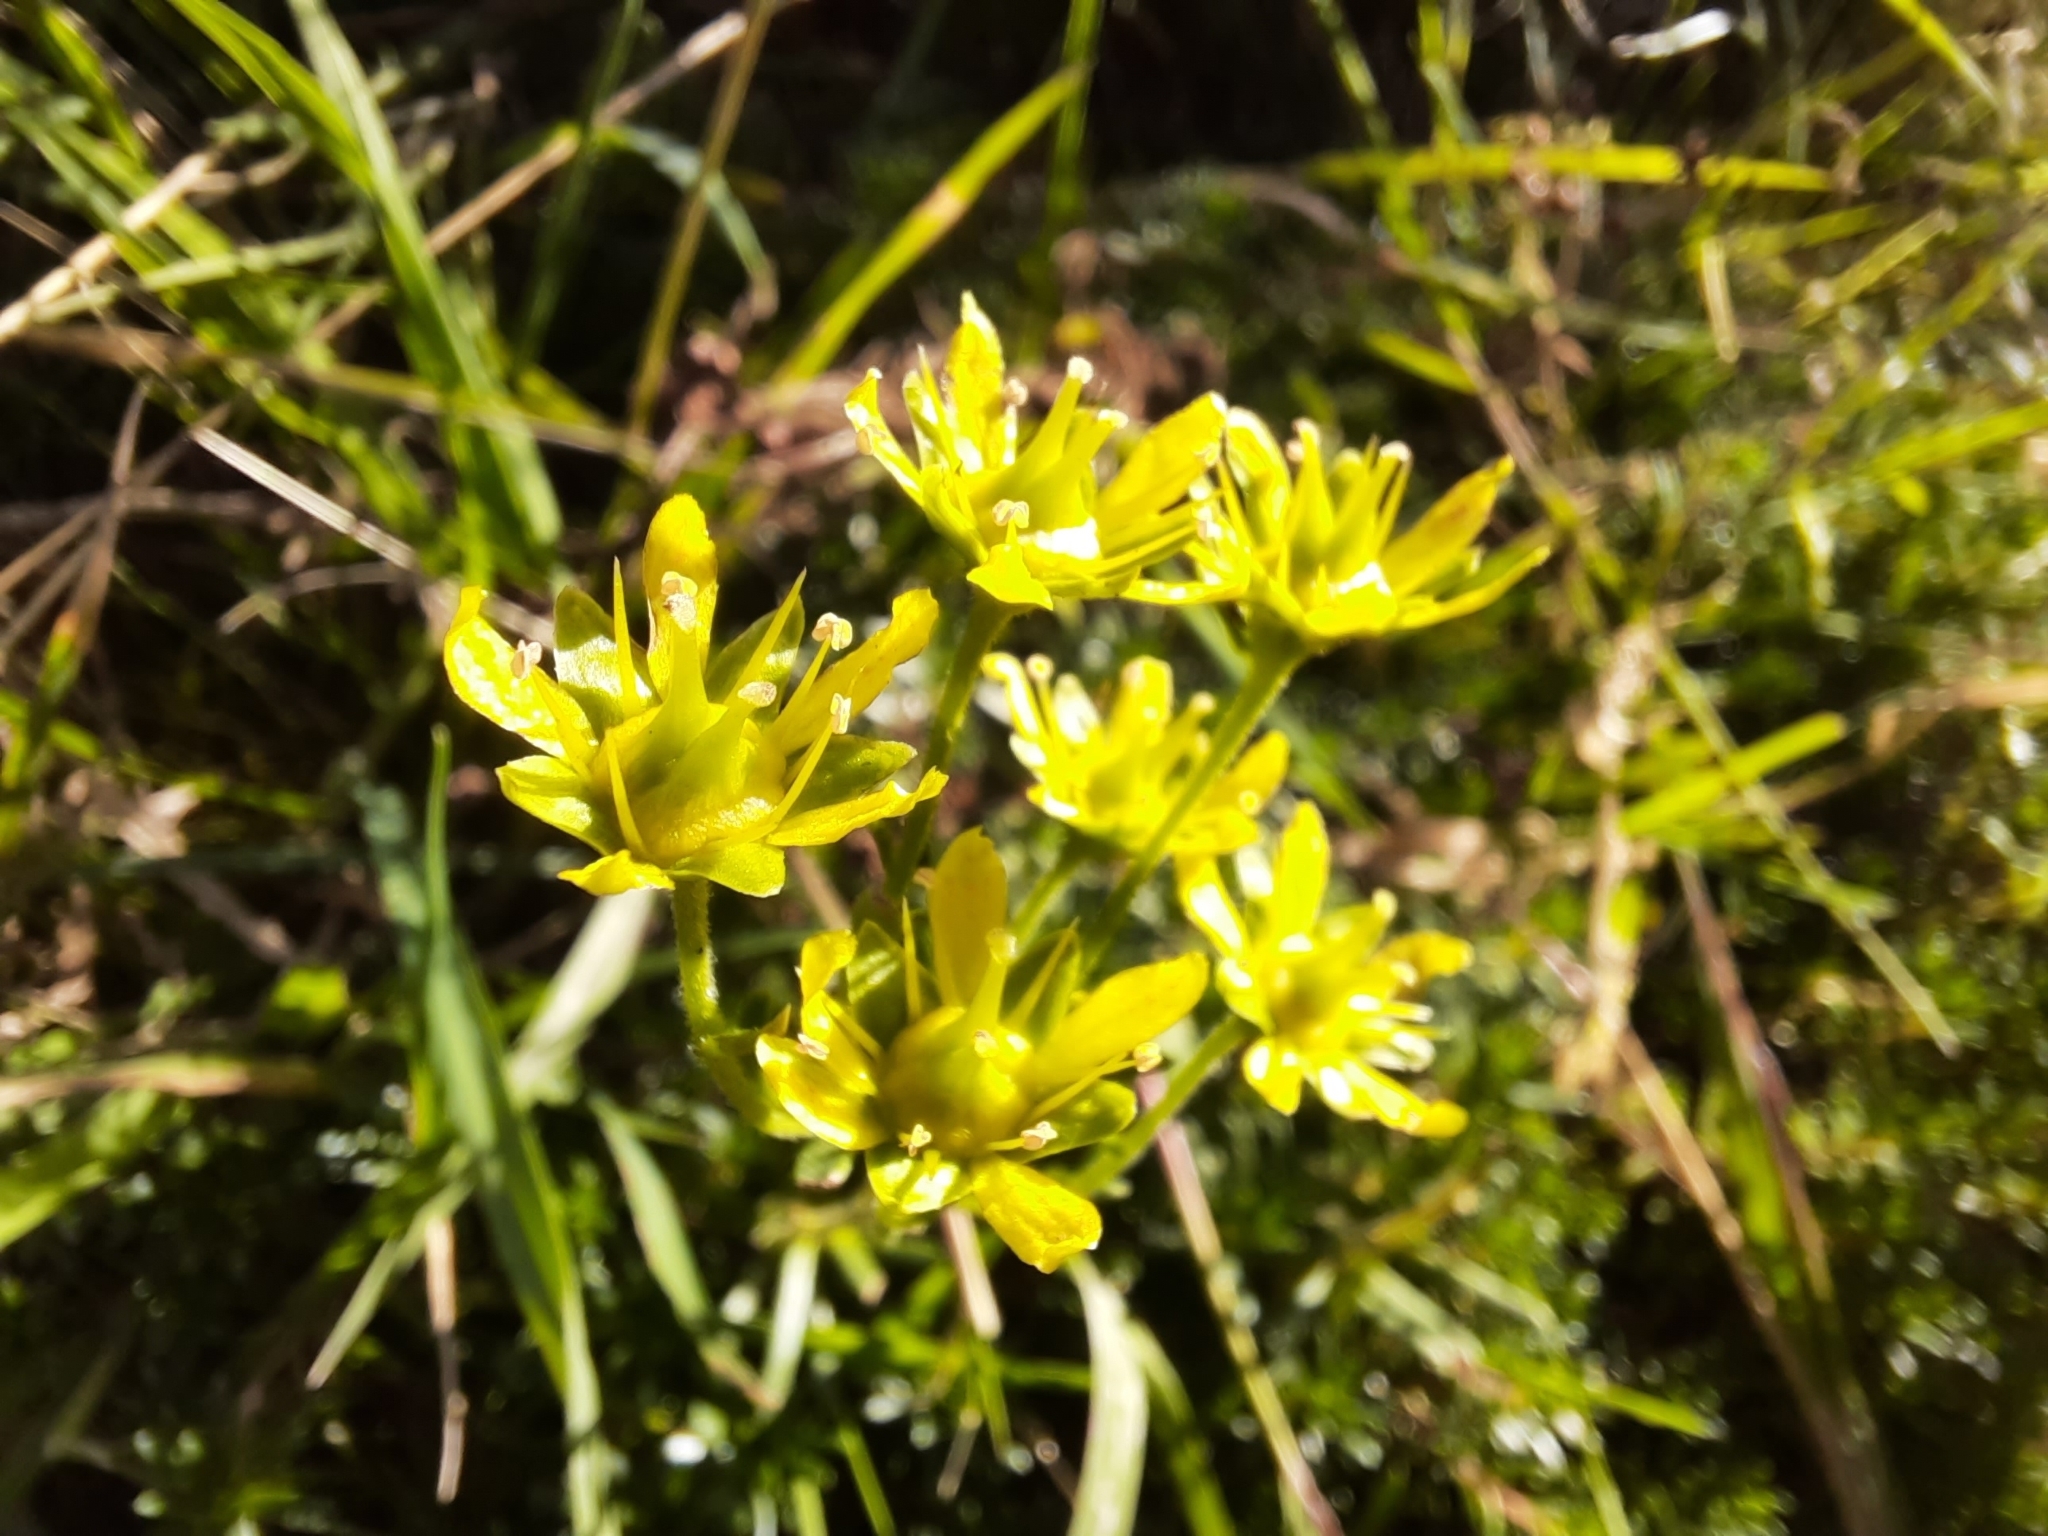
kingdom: Plantae
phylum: Tracheophyta
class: Magnoliopsida
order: Saxifragales
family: Saxifragaceae
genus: Saxifraga
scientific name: Saxifraga aizoides
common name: Yellow mountain saxifrage
